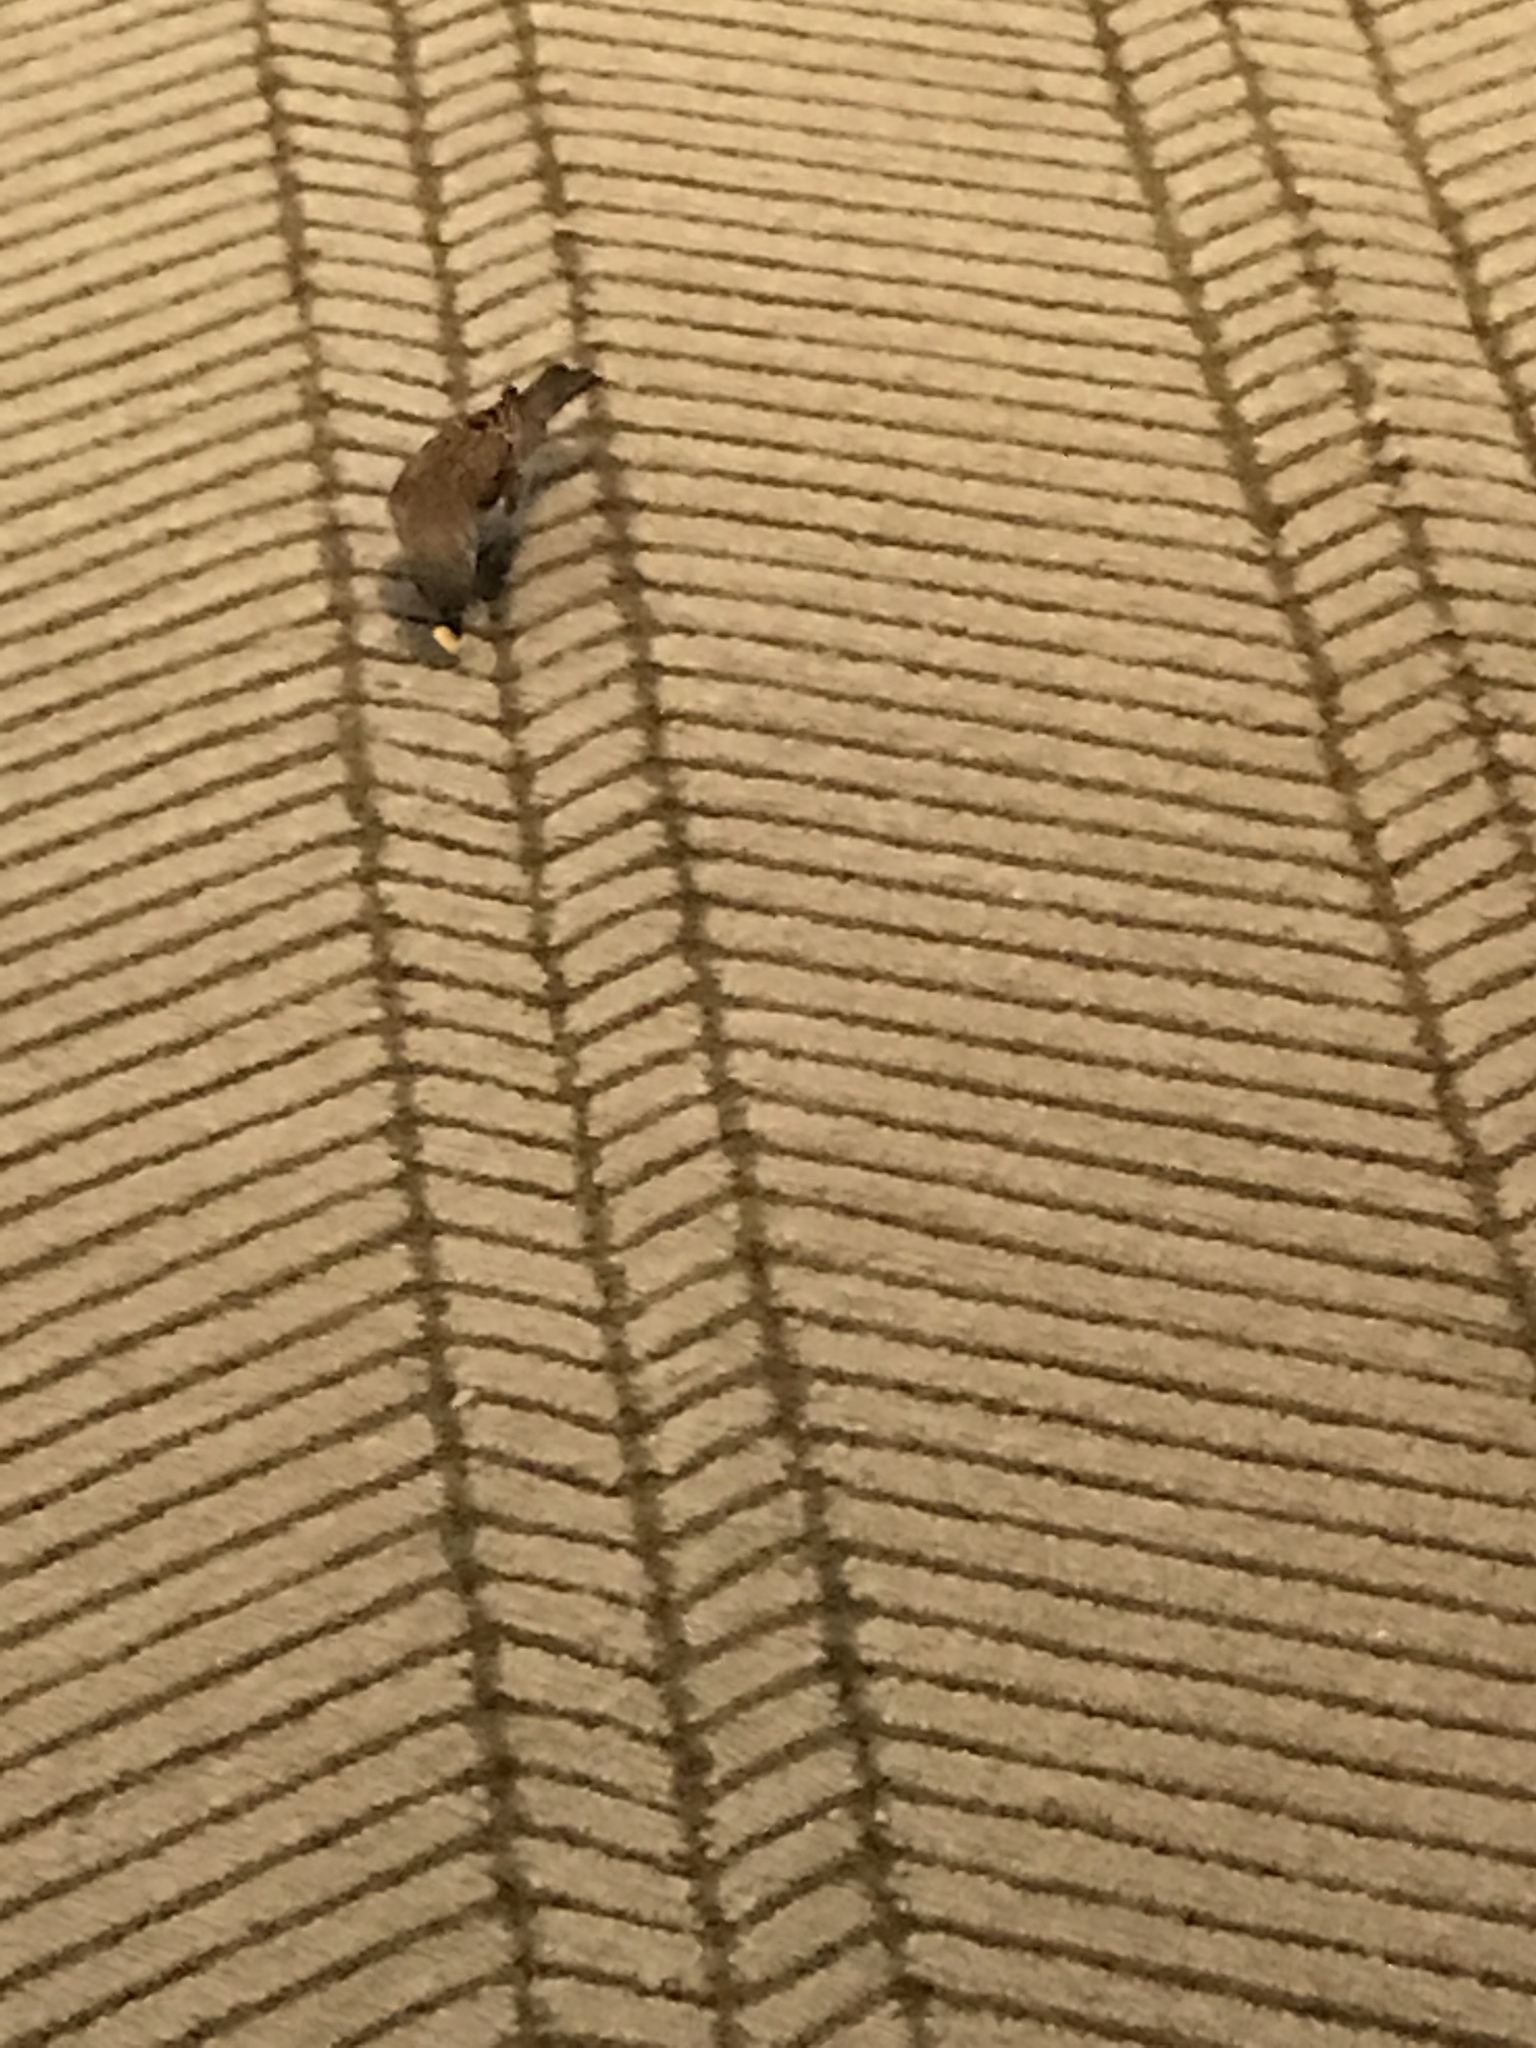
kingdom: Animalia
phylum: Chordata
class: Aves
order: Passeriformes
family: Passeridae
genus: Passer
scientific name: Passer domesticus
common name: House sparrow
